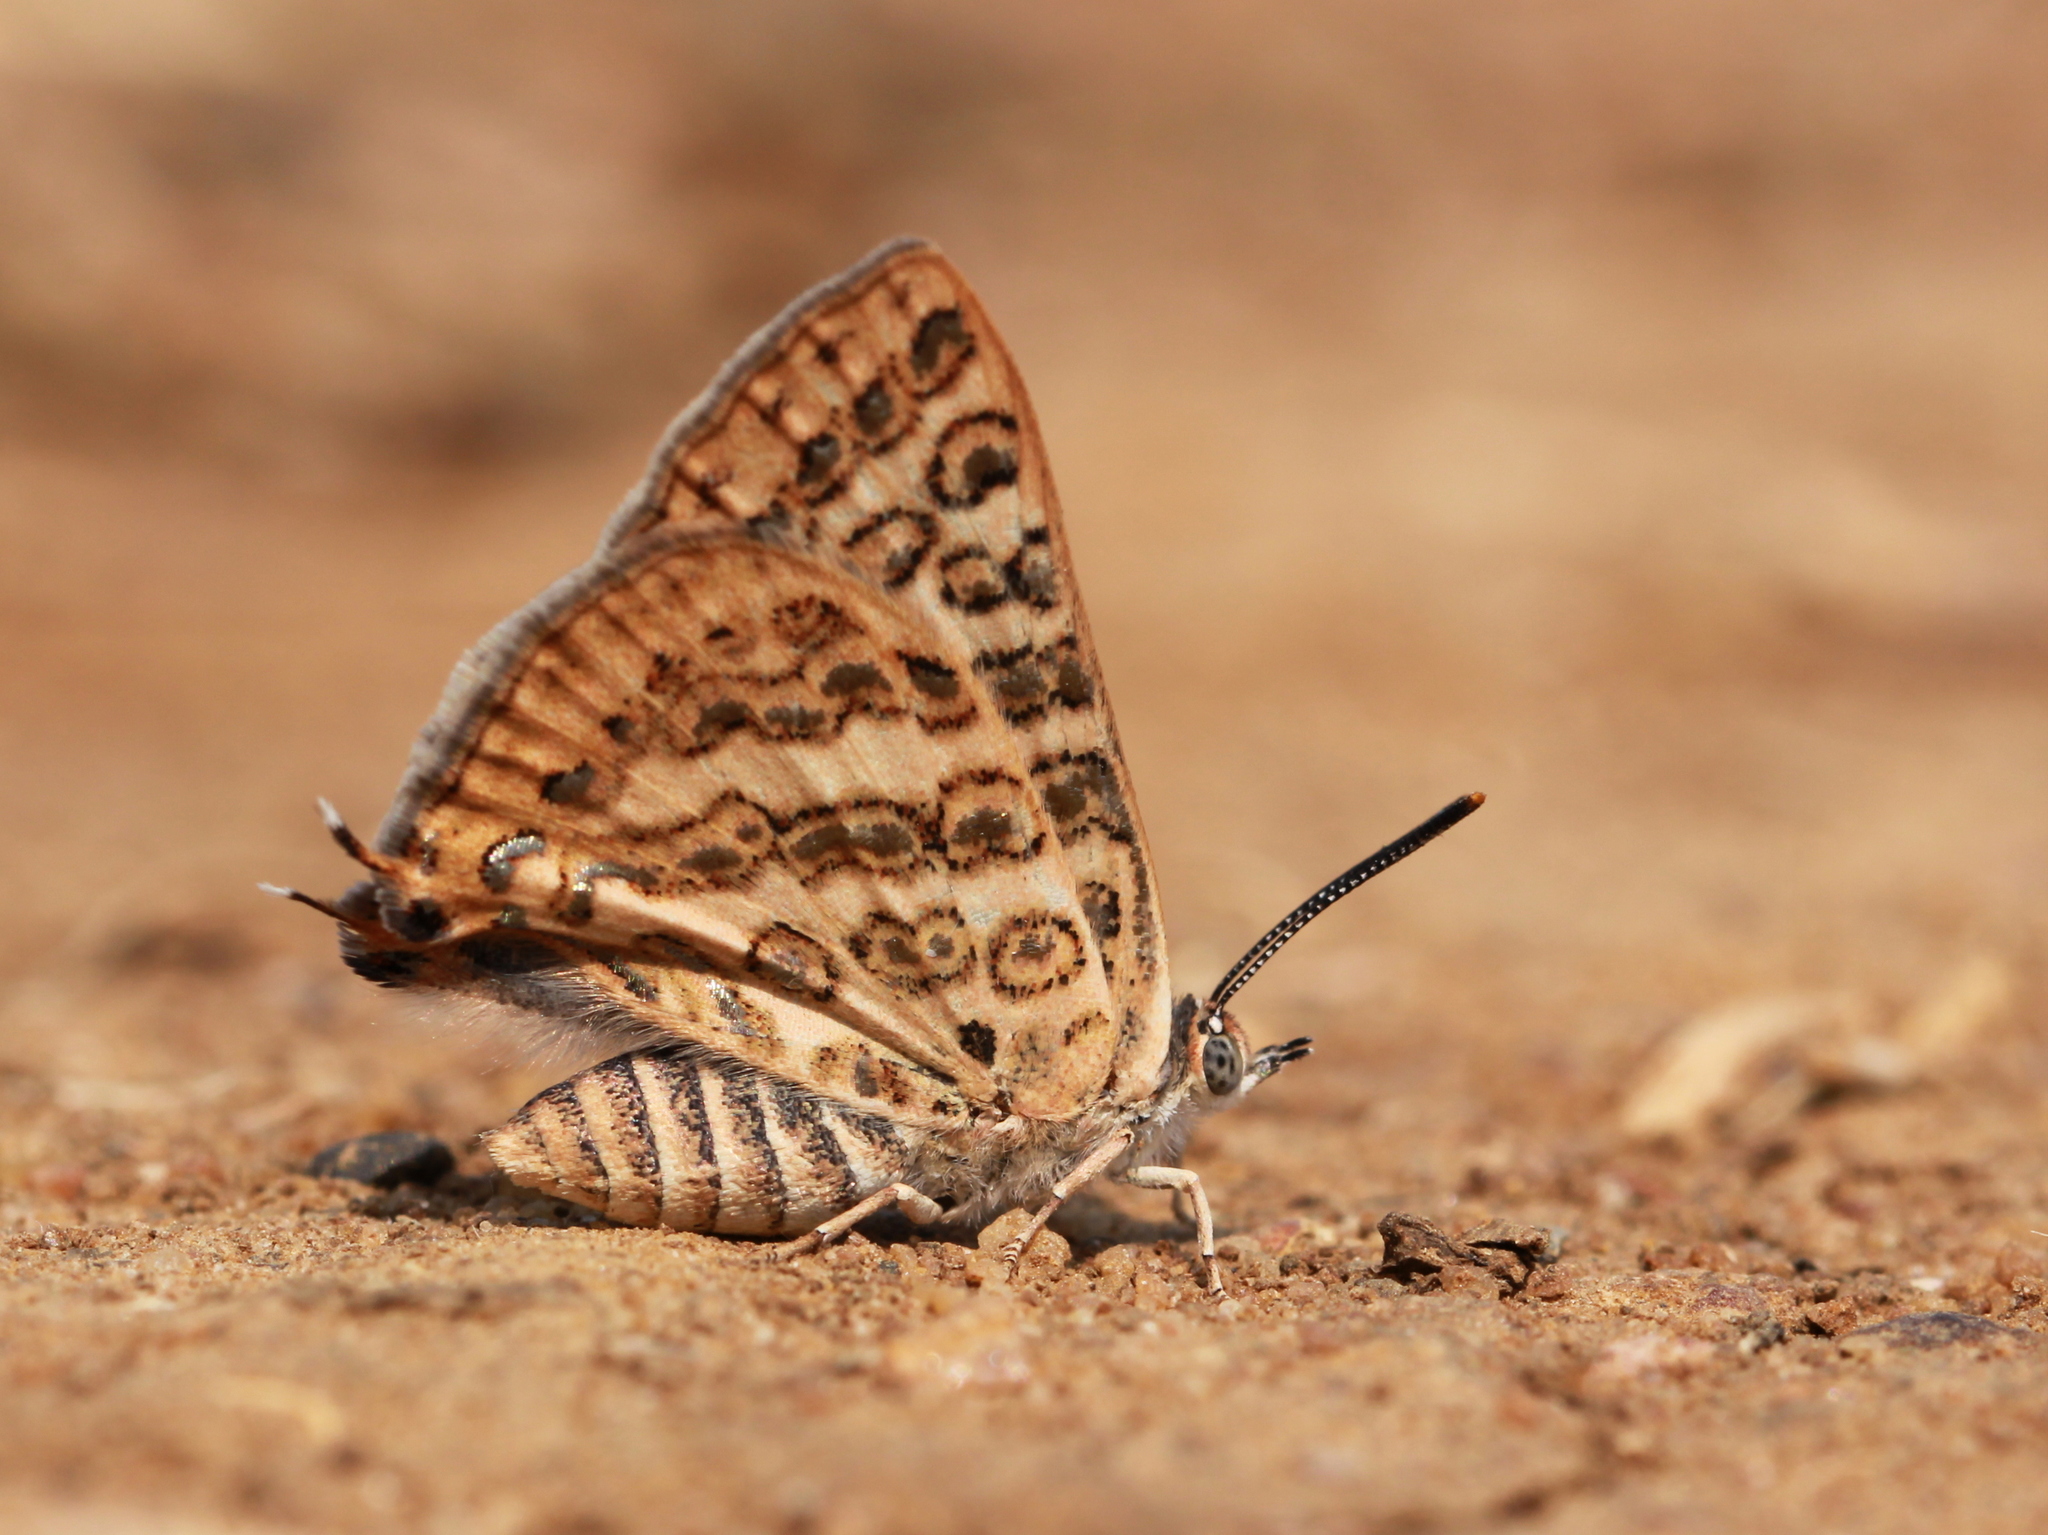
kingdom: Animalia
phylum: Arthropoda
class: Insecta
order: Lepidoptera
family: Lycaenidae
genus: Aphnaeus
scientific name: Aphnaeus lilacinus
